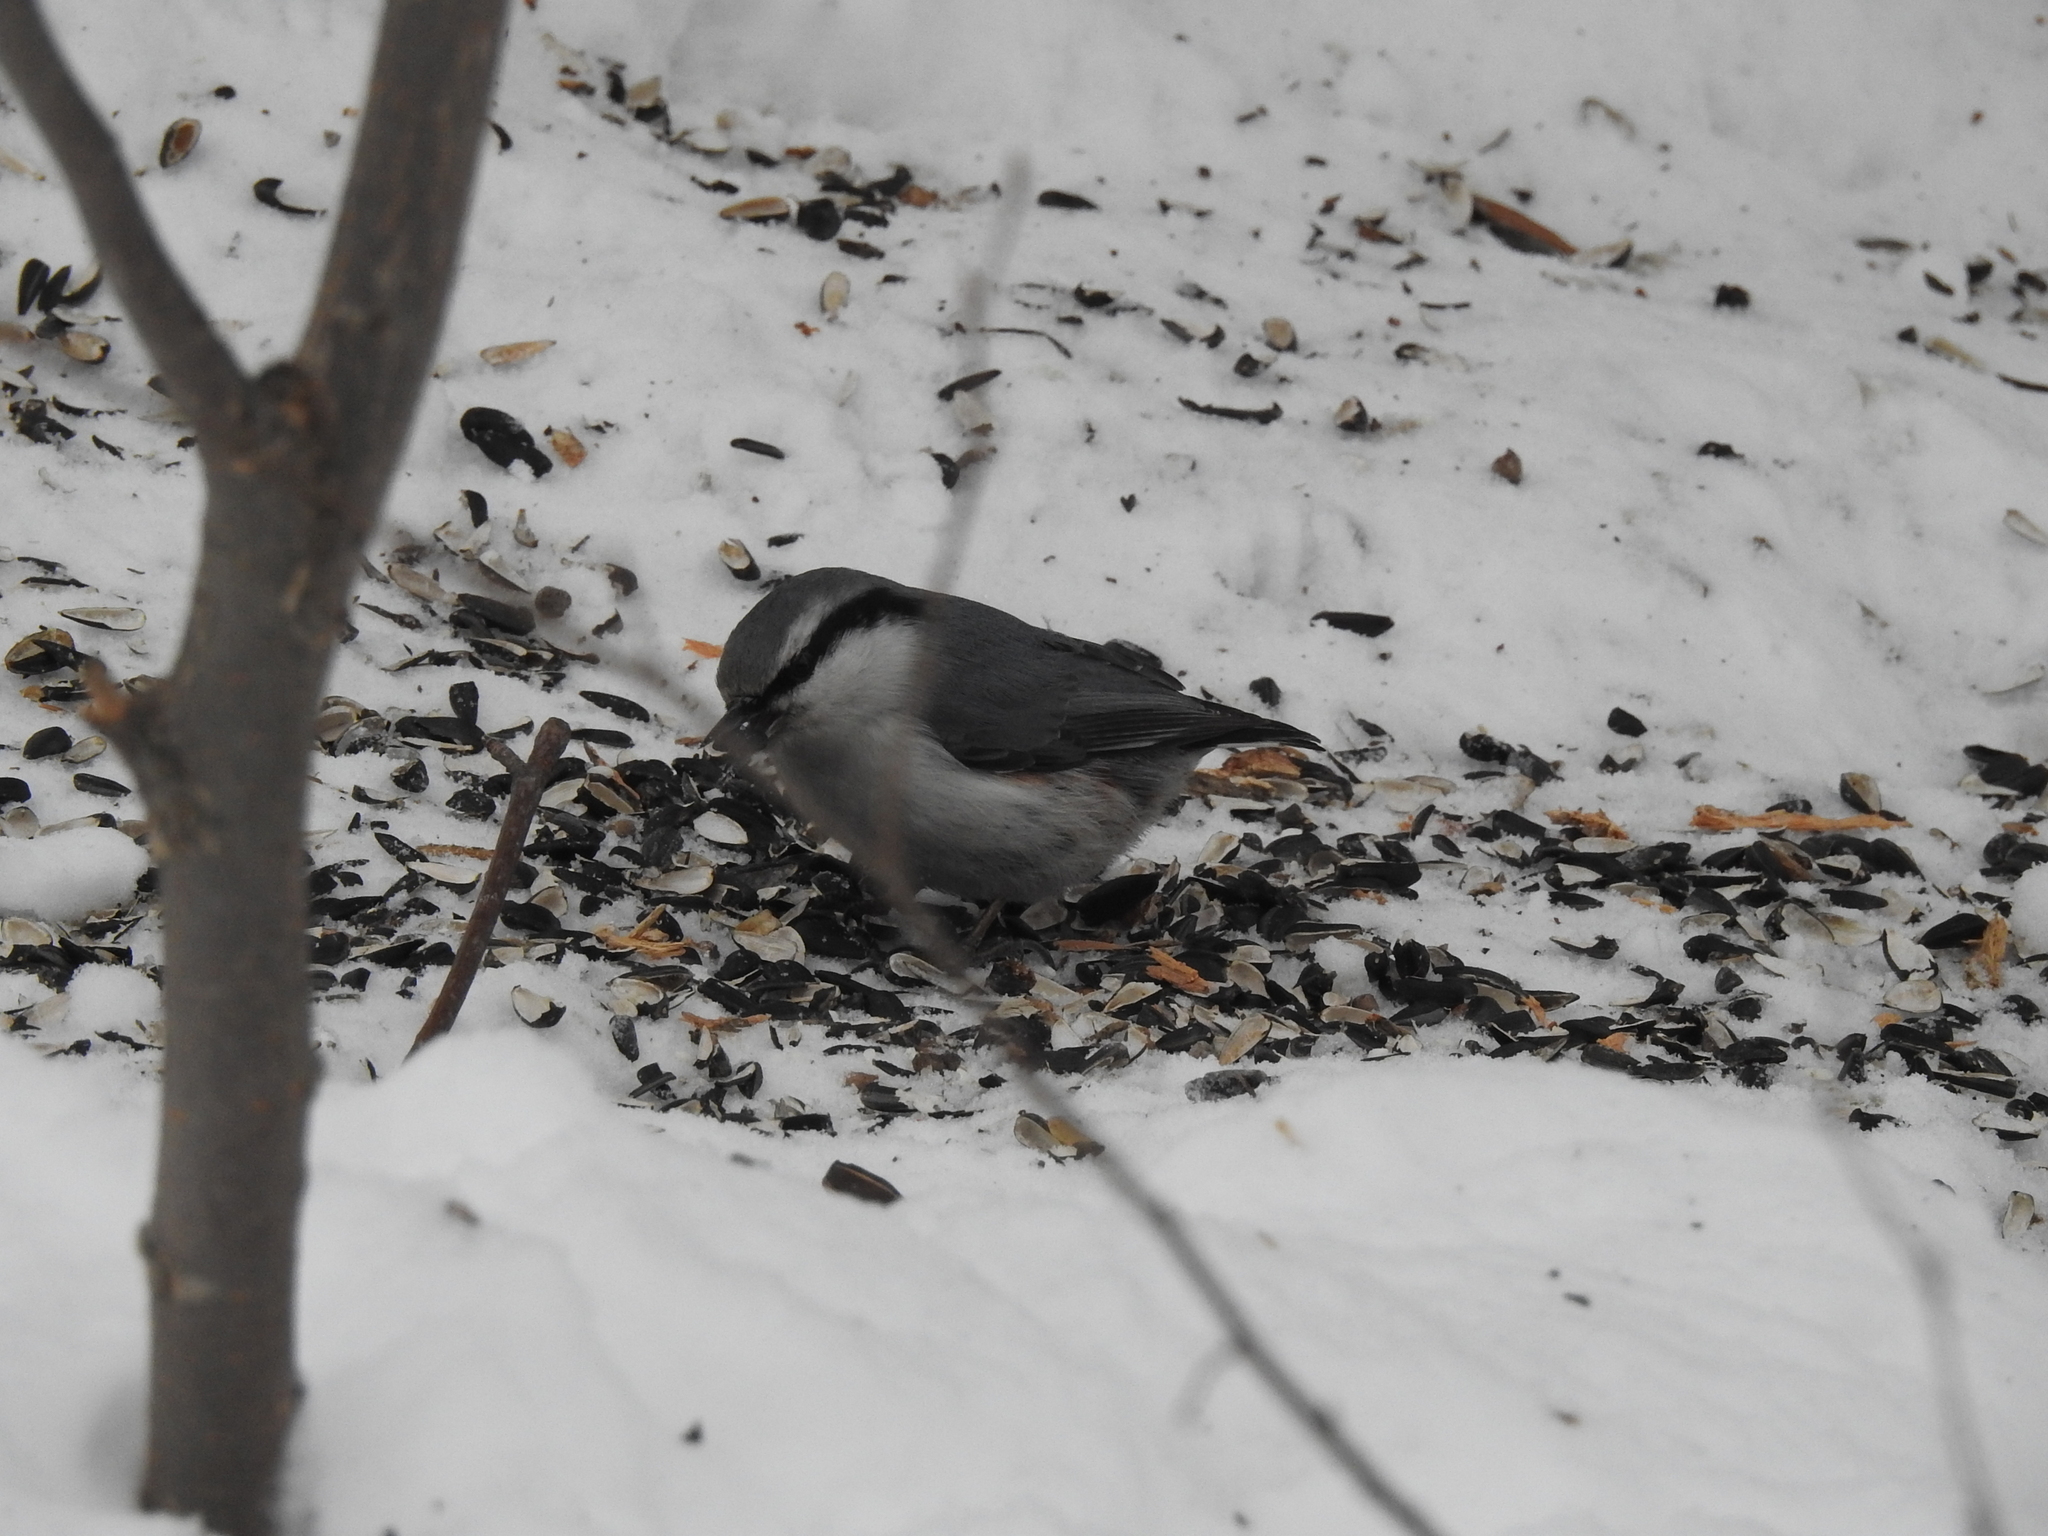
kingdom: Animalia
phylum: Chordata
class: Aves
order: Passeriformes
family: Sittidae
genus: Sitta
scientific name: Sitta europaea
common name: Eurasian nuthatch
